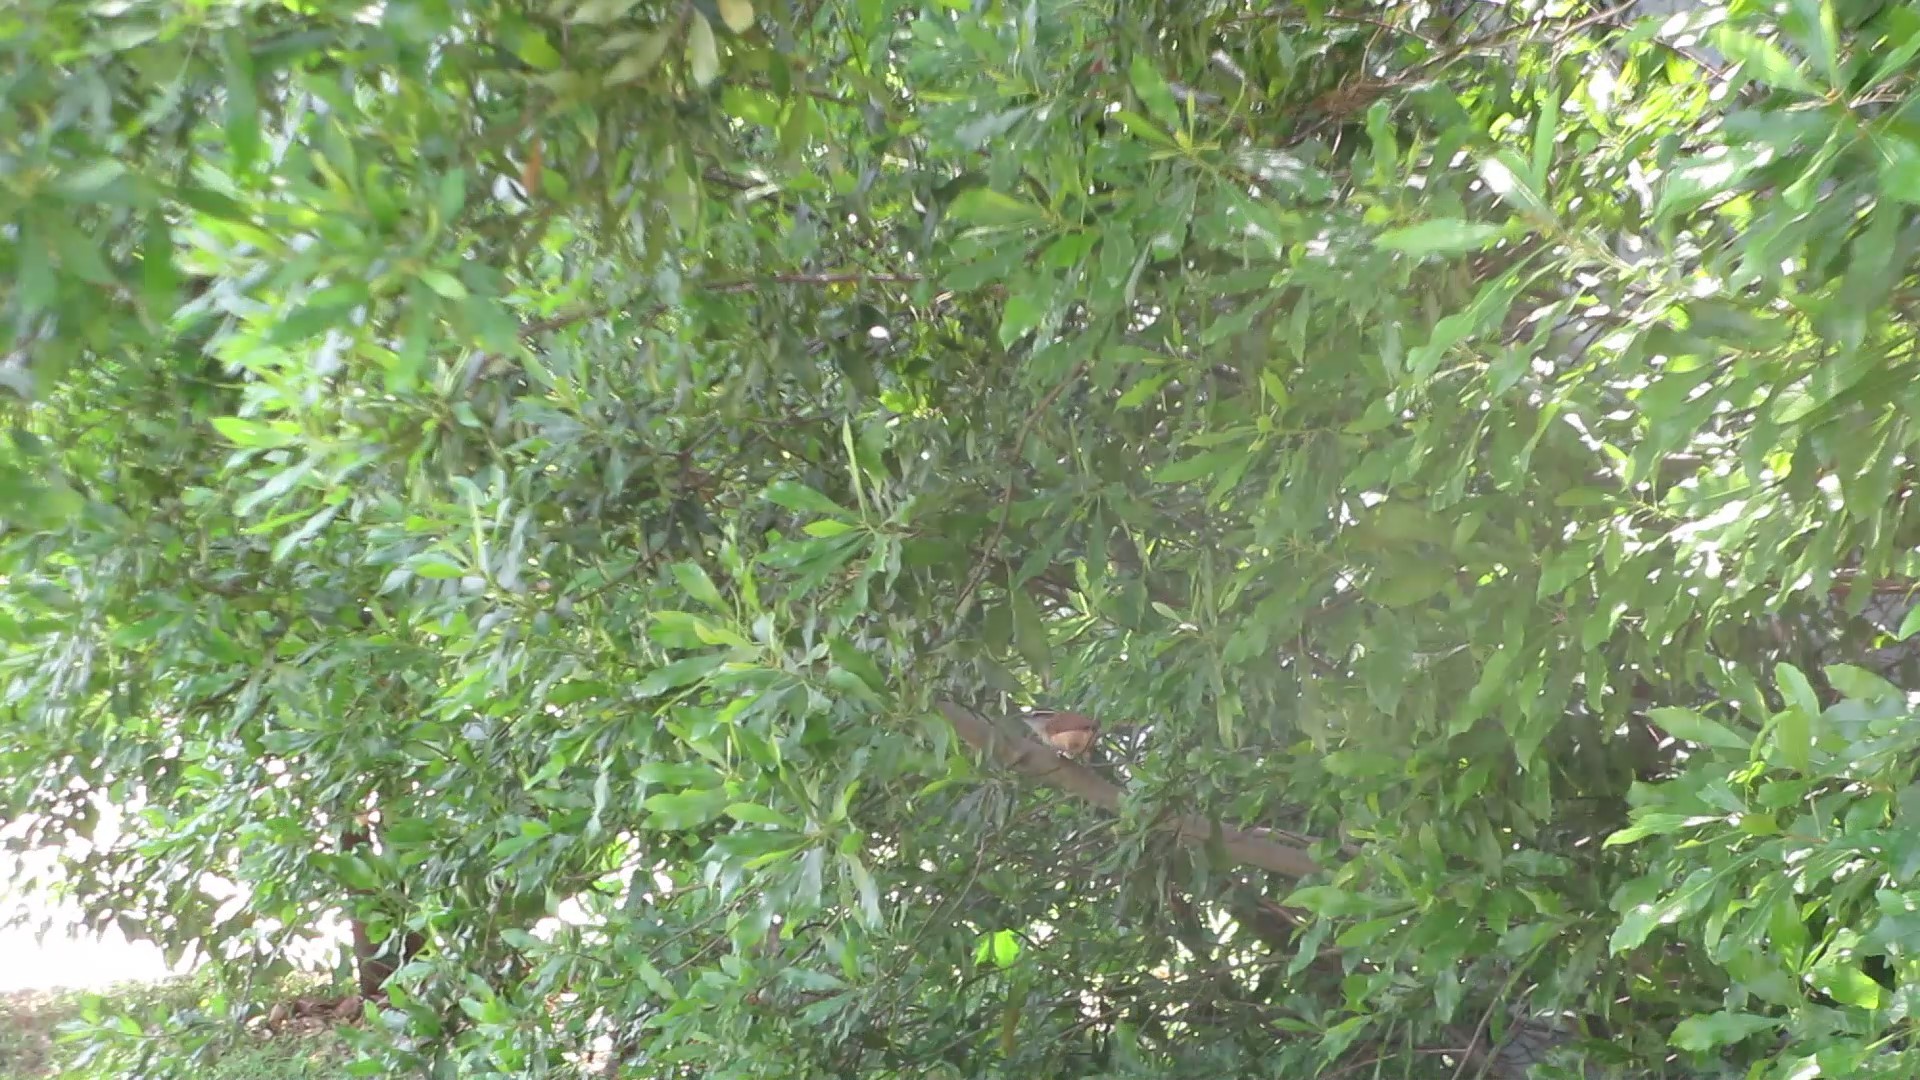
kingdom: Animalia
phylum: Chordata
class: Aves
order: Passeriformes
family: Troglodytidae
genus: Thryothorus
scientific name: Thryothorus ludovicianus
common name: Carolina wren
